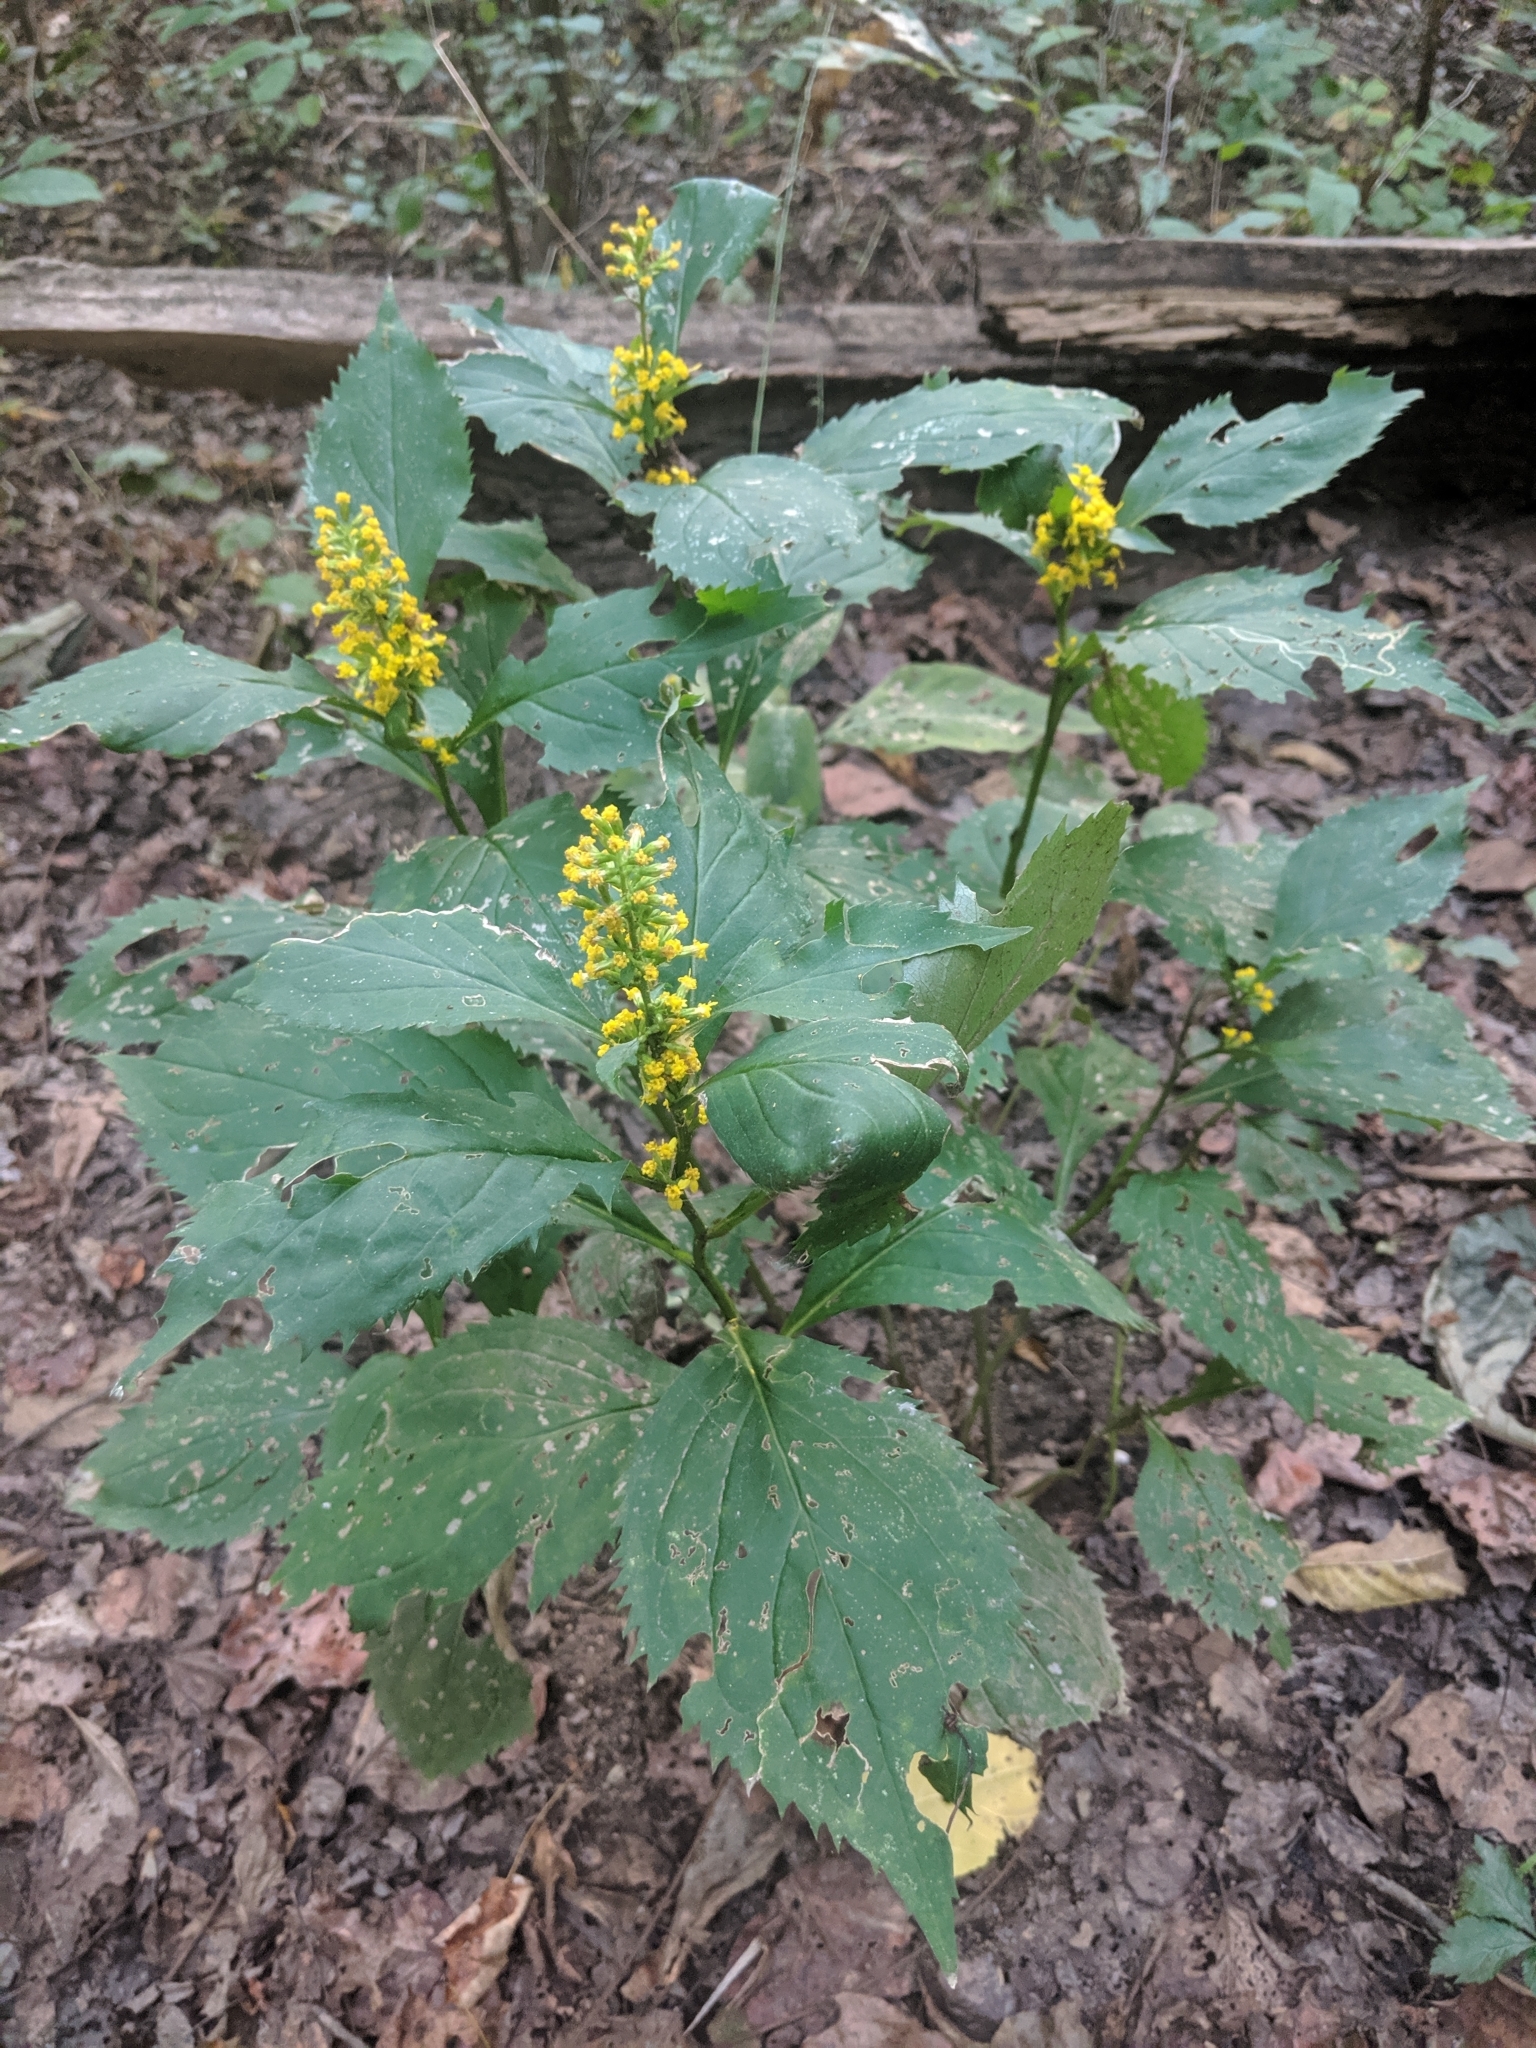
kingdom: Plantae
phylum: Tracheophyta
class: Magnoliopsida
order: Asterales
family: Asteraceae
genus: Solidago
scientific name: Solidago flexicaulis
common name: Zig-zag goldenrod
